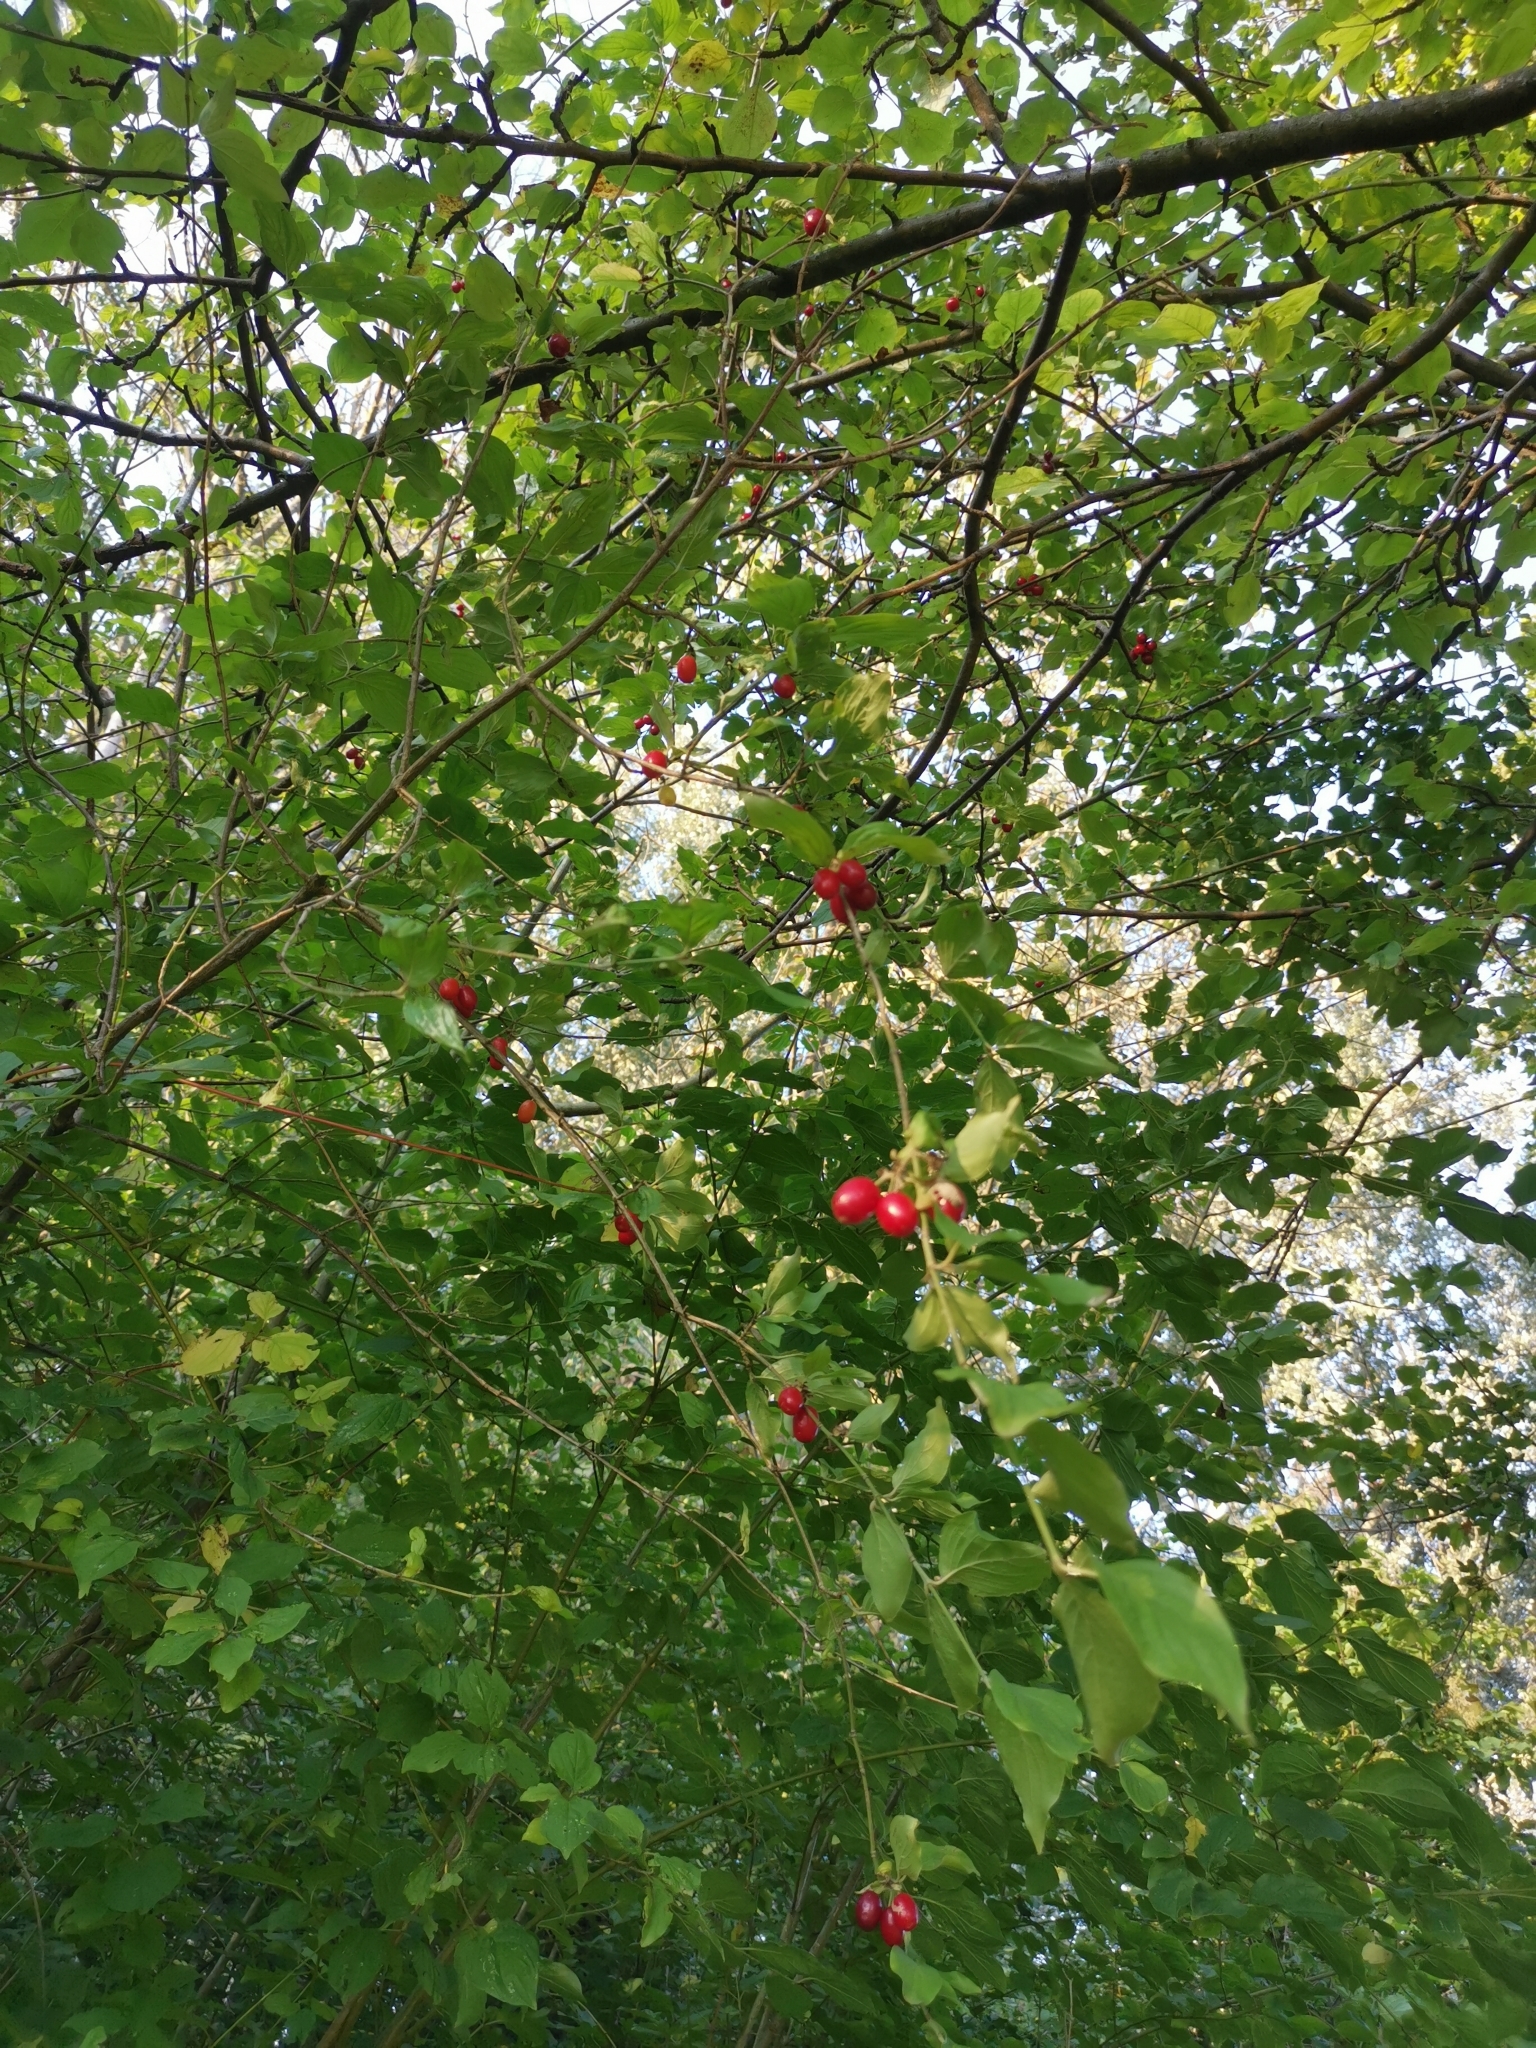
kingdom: Plantae
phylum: Tracheophyta
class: Magnoliopsida
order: Cornales
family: Cornaceae
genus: Cornus
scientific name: Cornus mas
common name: Cornelian-cherry
